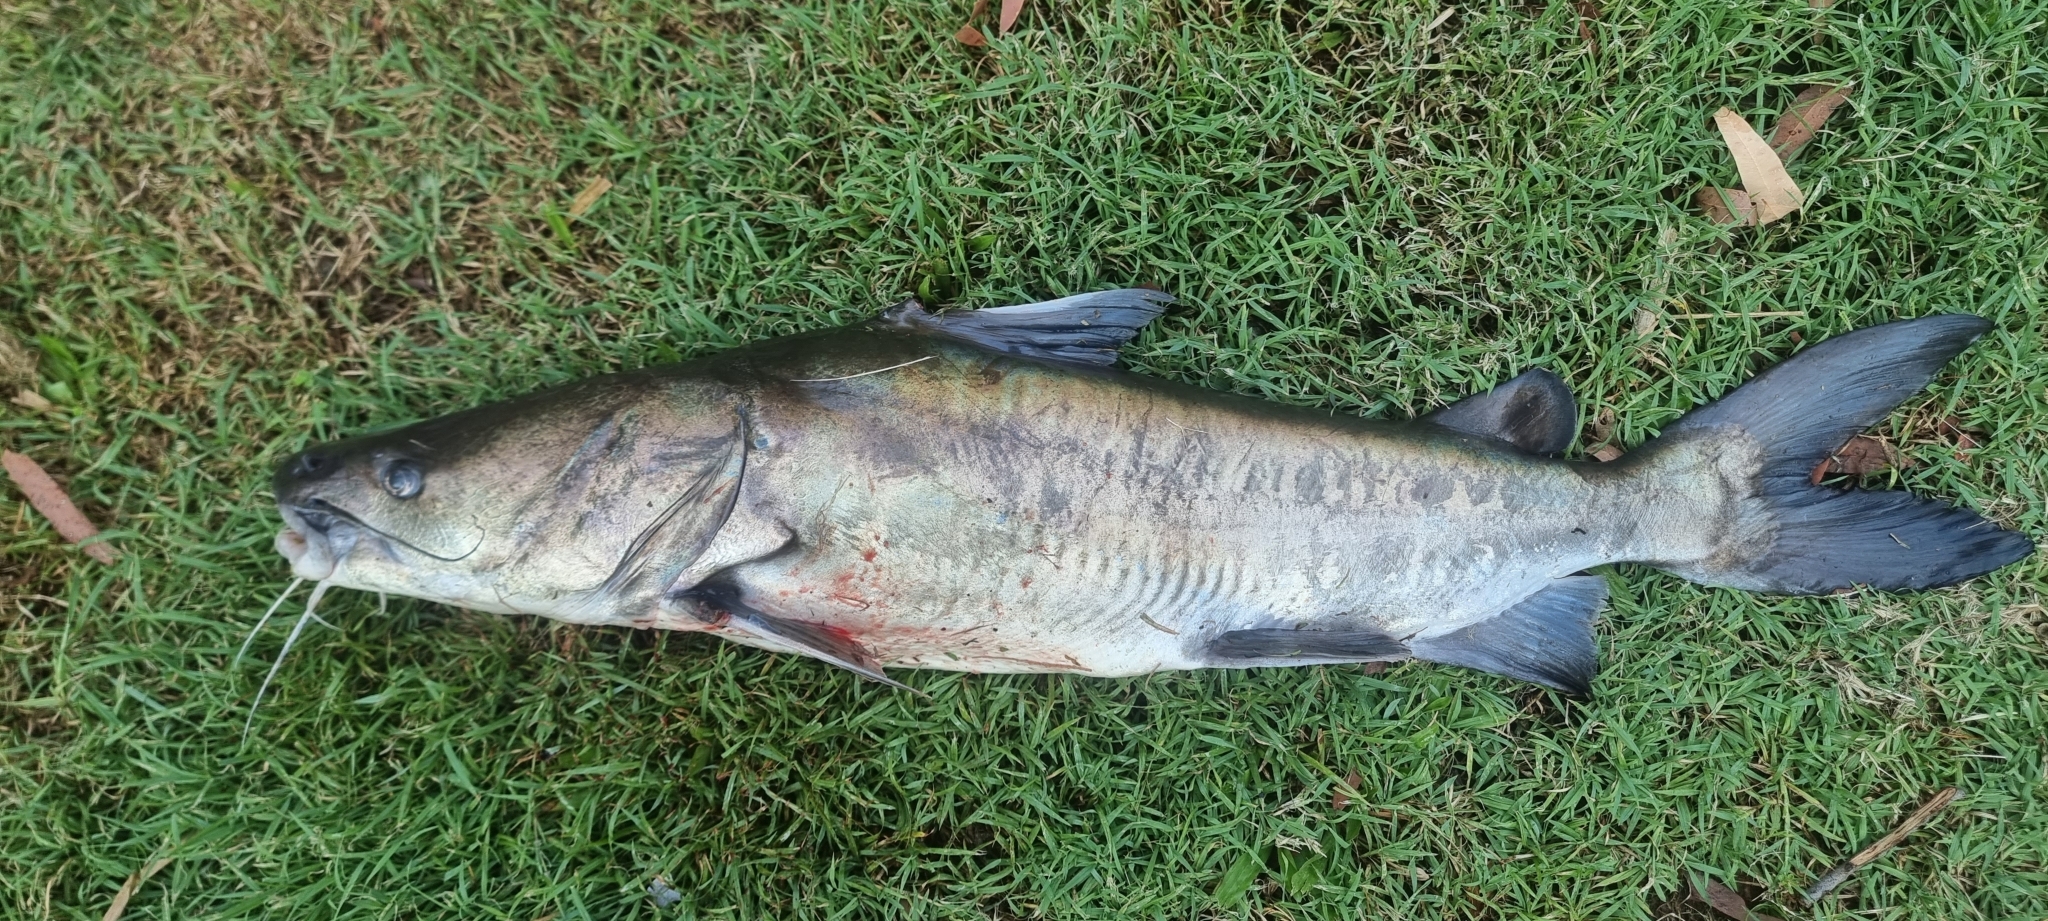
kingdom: Animalia
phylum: Chordata
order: Siluriformes
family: Ariidae
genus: Sciades
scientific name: Sciades paucus
